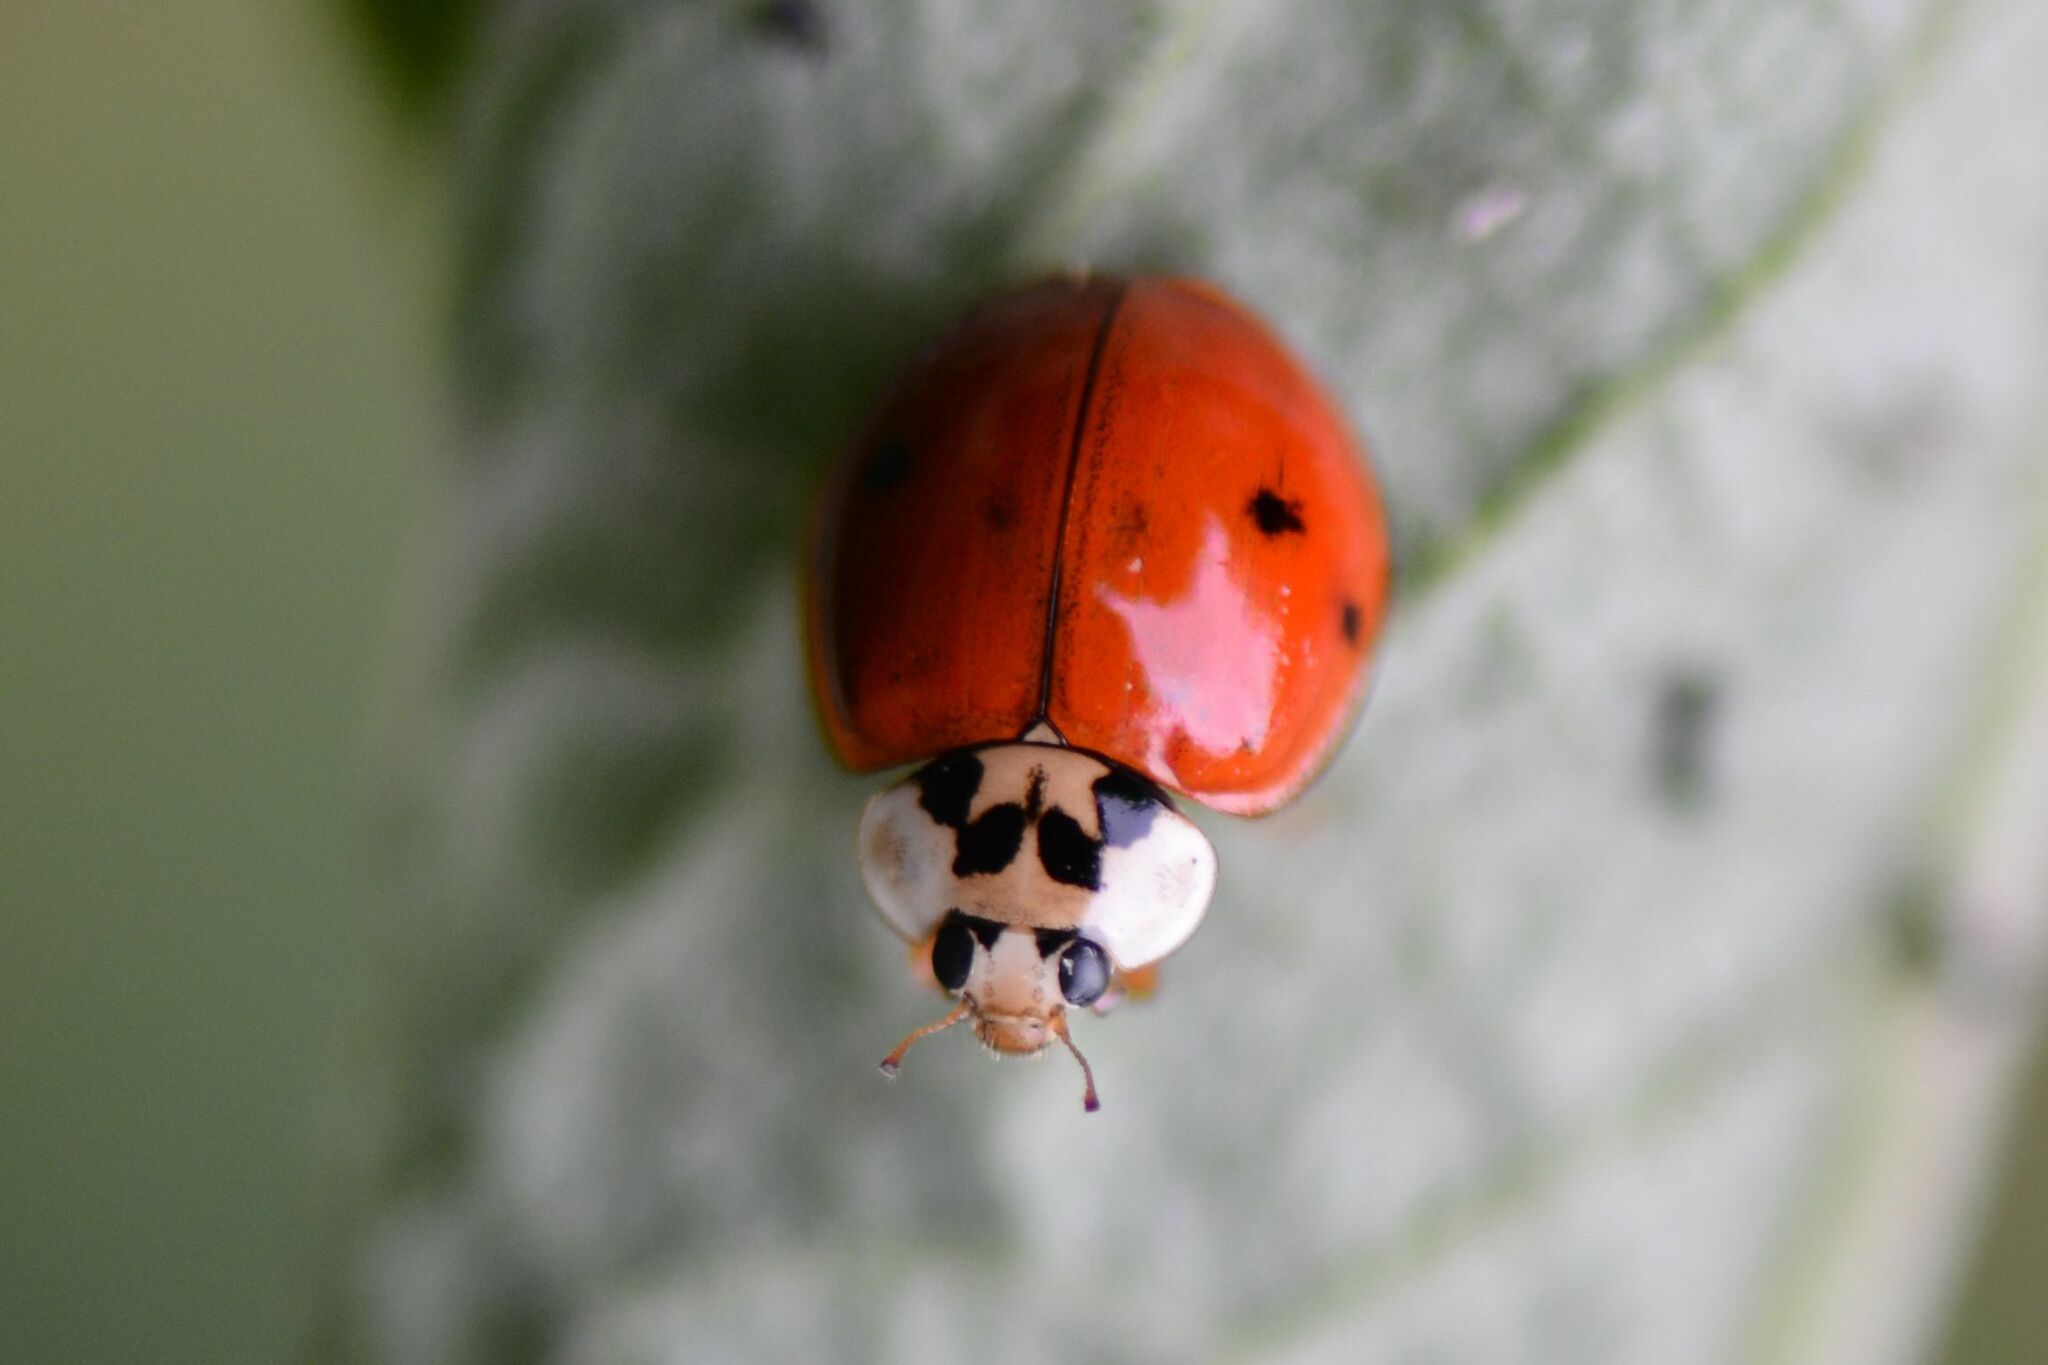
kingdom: Animalia
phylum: Arthropoda
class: Insecta
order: Coleoptera
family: Coccinellidae
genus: Harmonia
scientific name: Harmonia axyridis
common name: Harlequin ladybird
